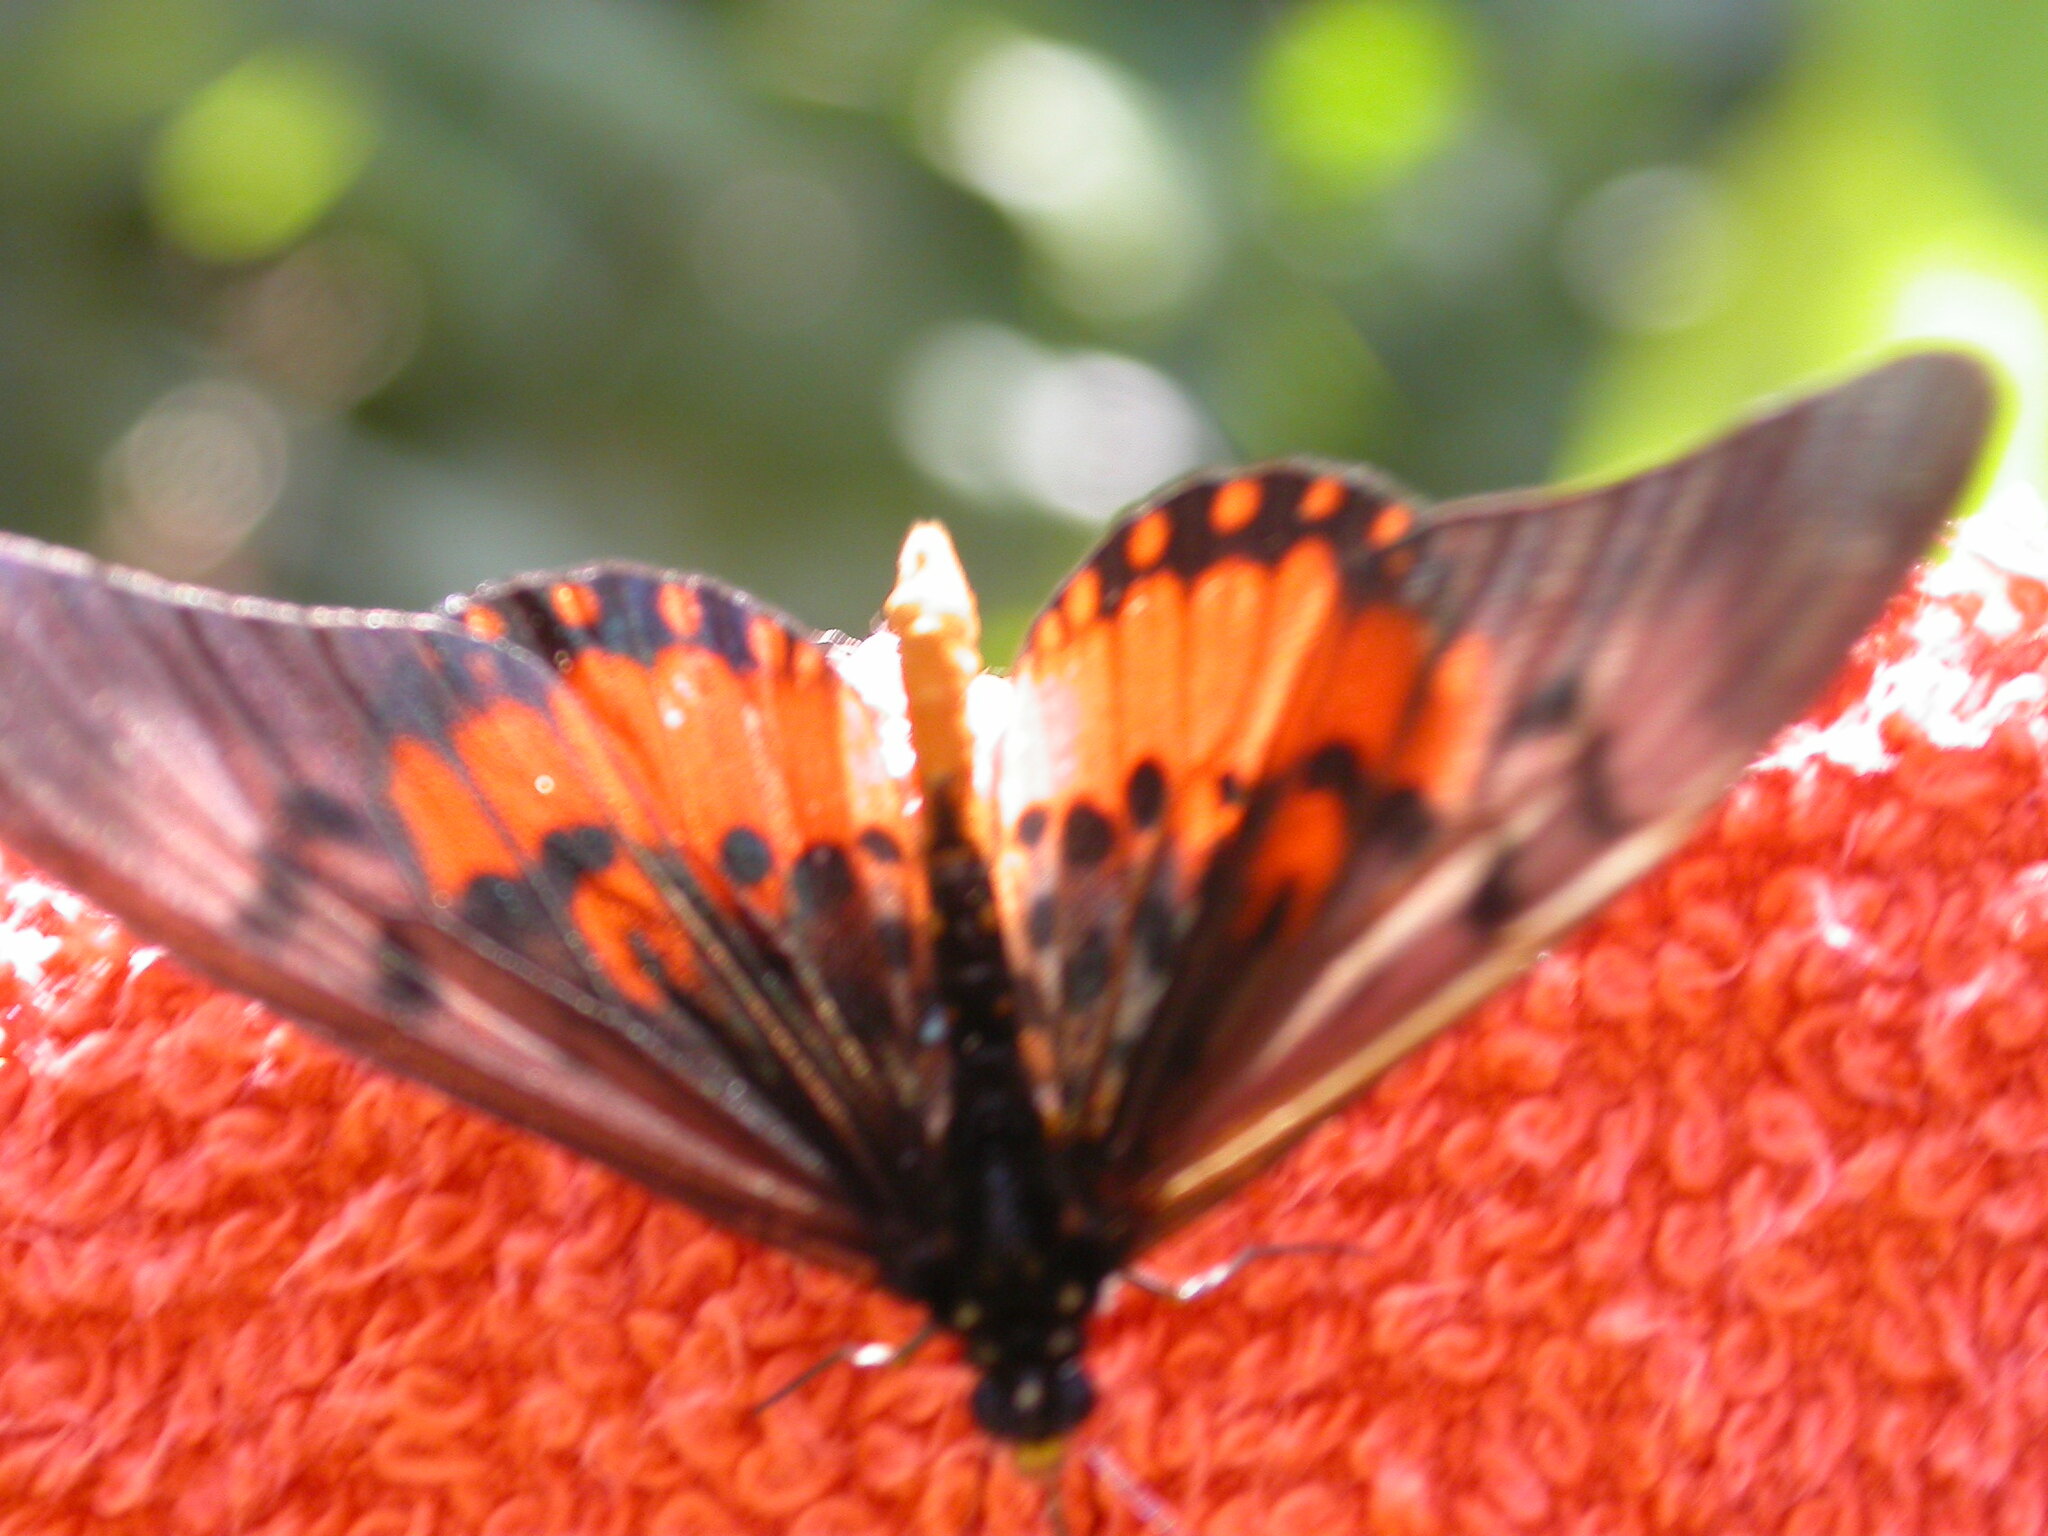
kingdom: Animalia
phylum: Arthropoda
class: Insecta
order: Lepidoptera
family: Nymphalidae
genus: Acraea
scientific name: Acraea
